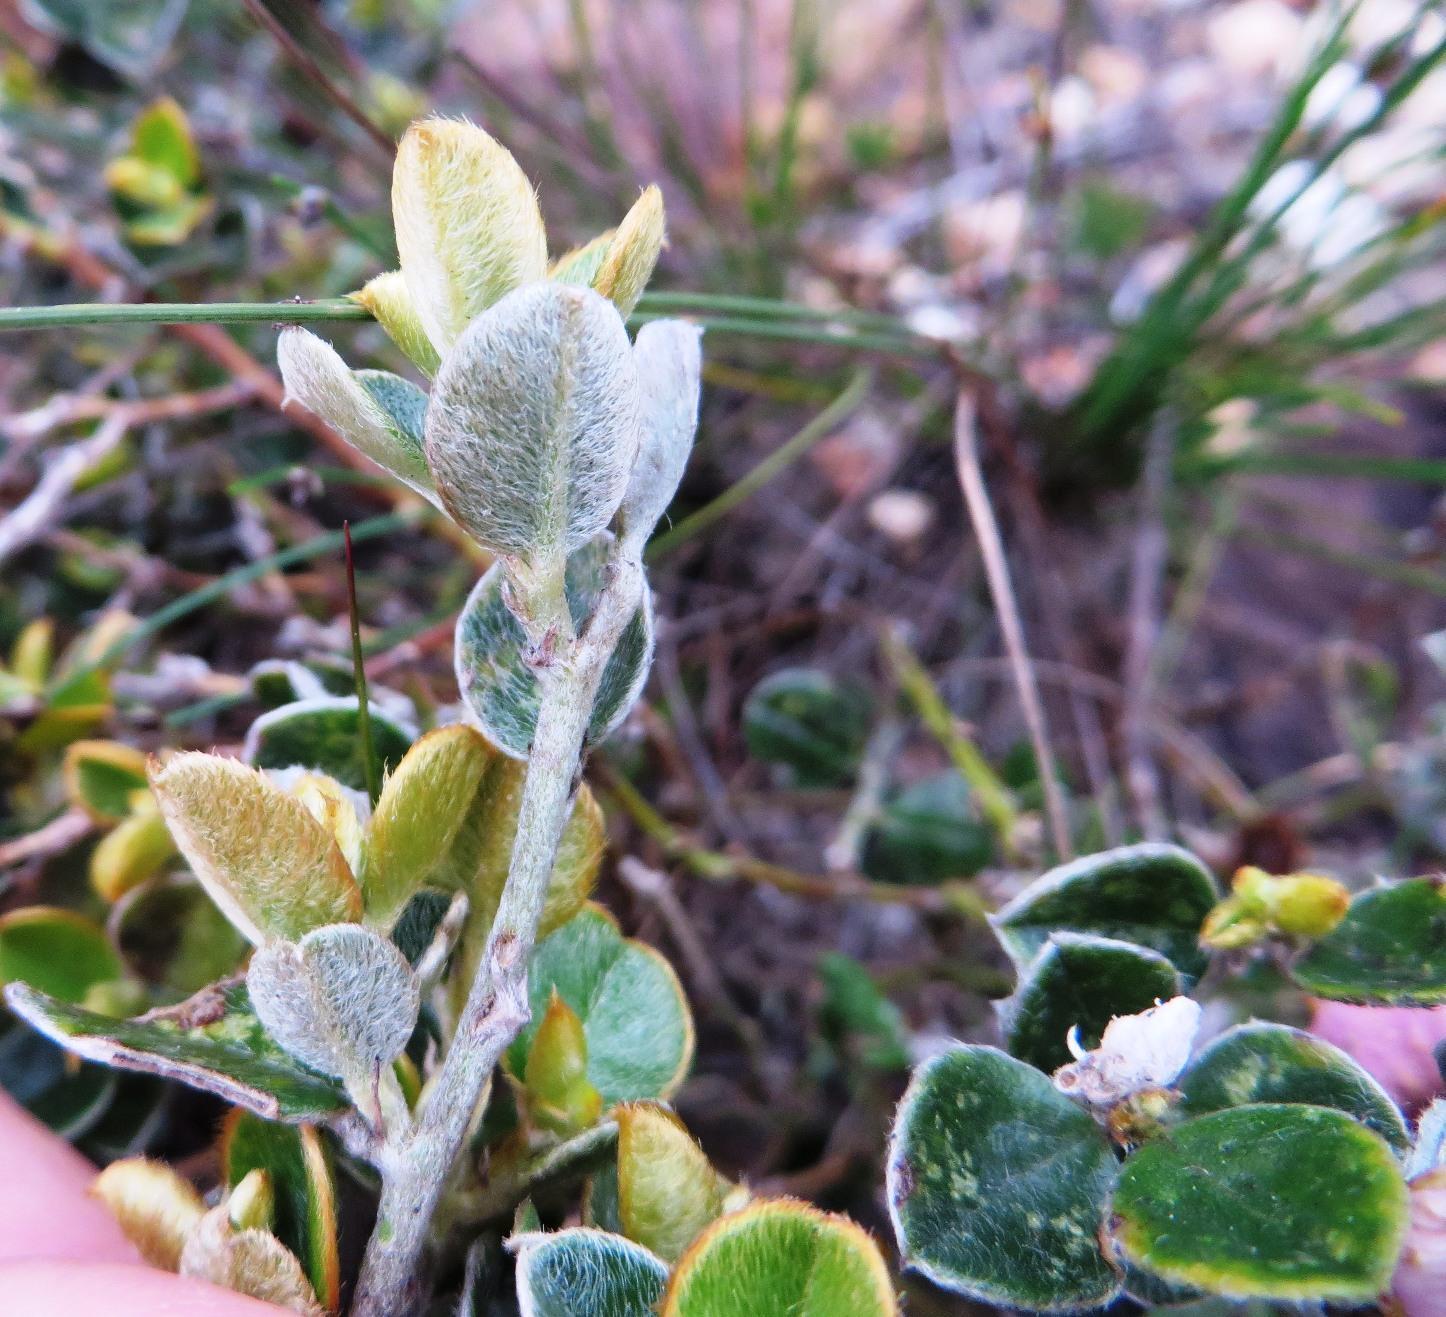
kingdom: Plantae
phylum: Tracheophyta
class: Magnoliopsida
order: Fabales
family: Fabaceae
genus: Podalyria
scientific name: Podalyria biflora
